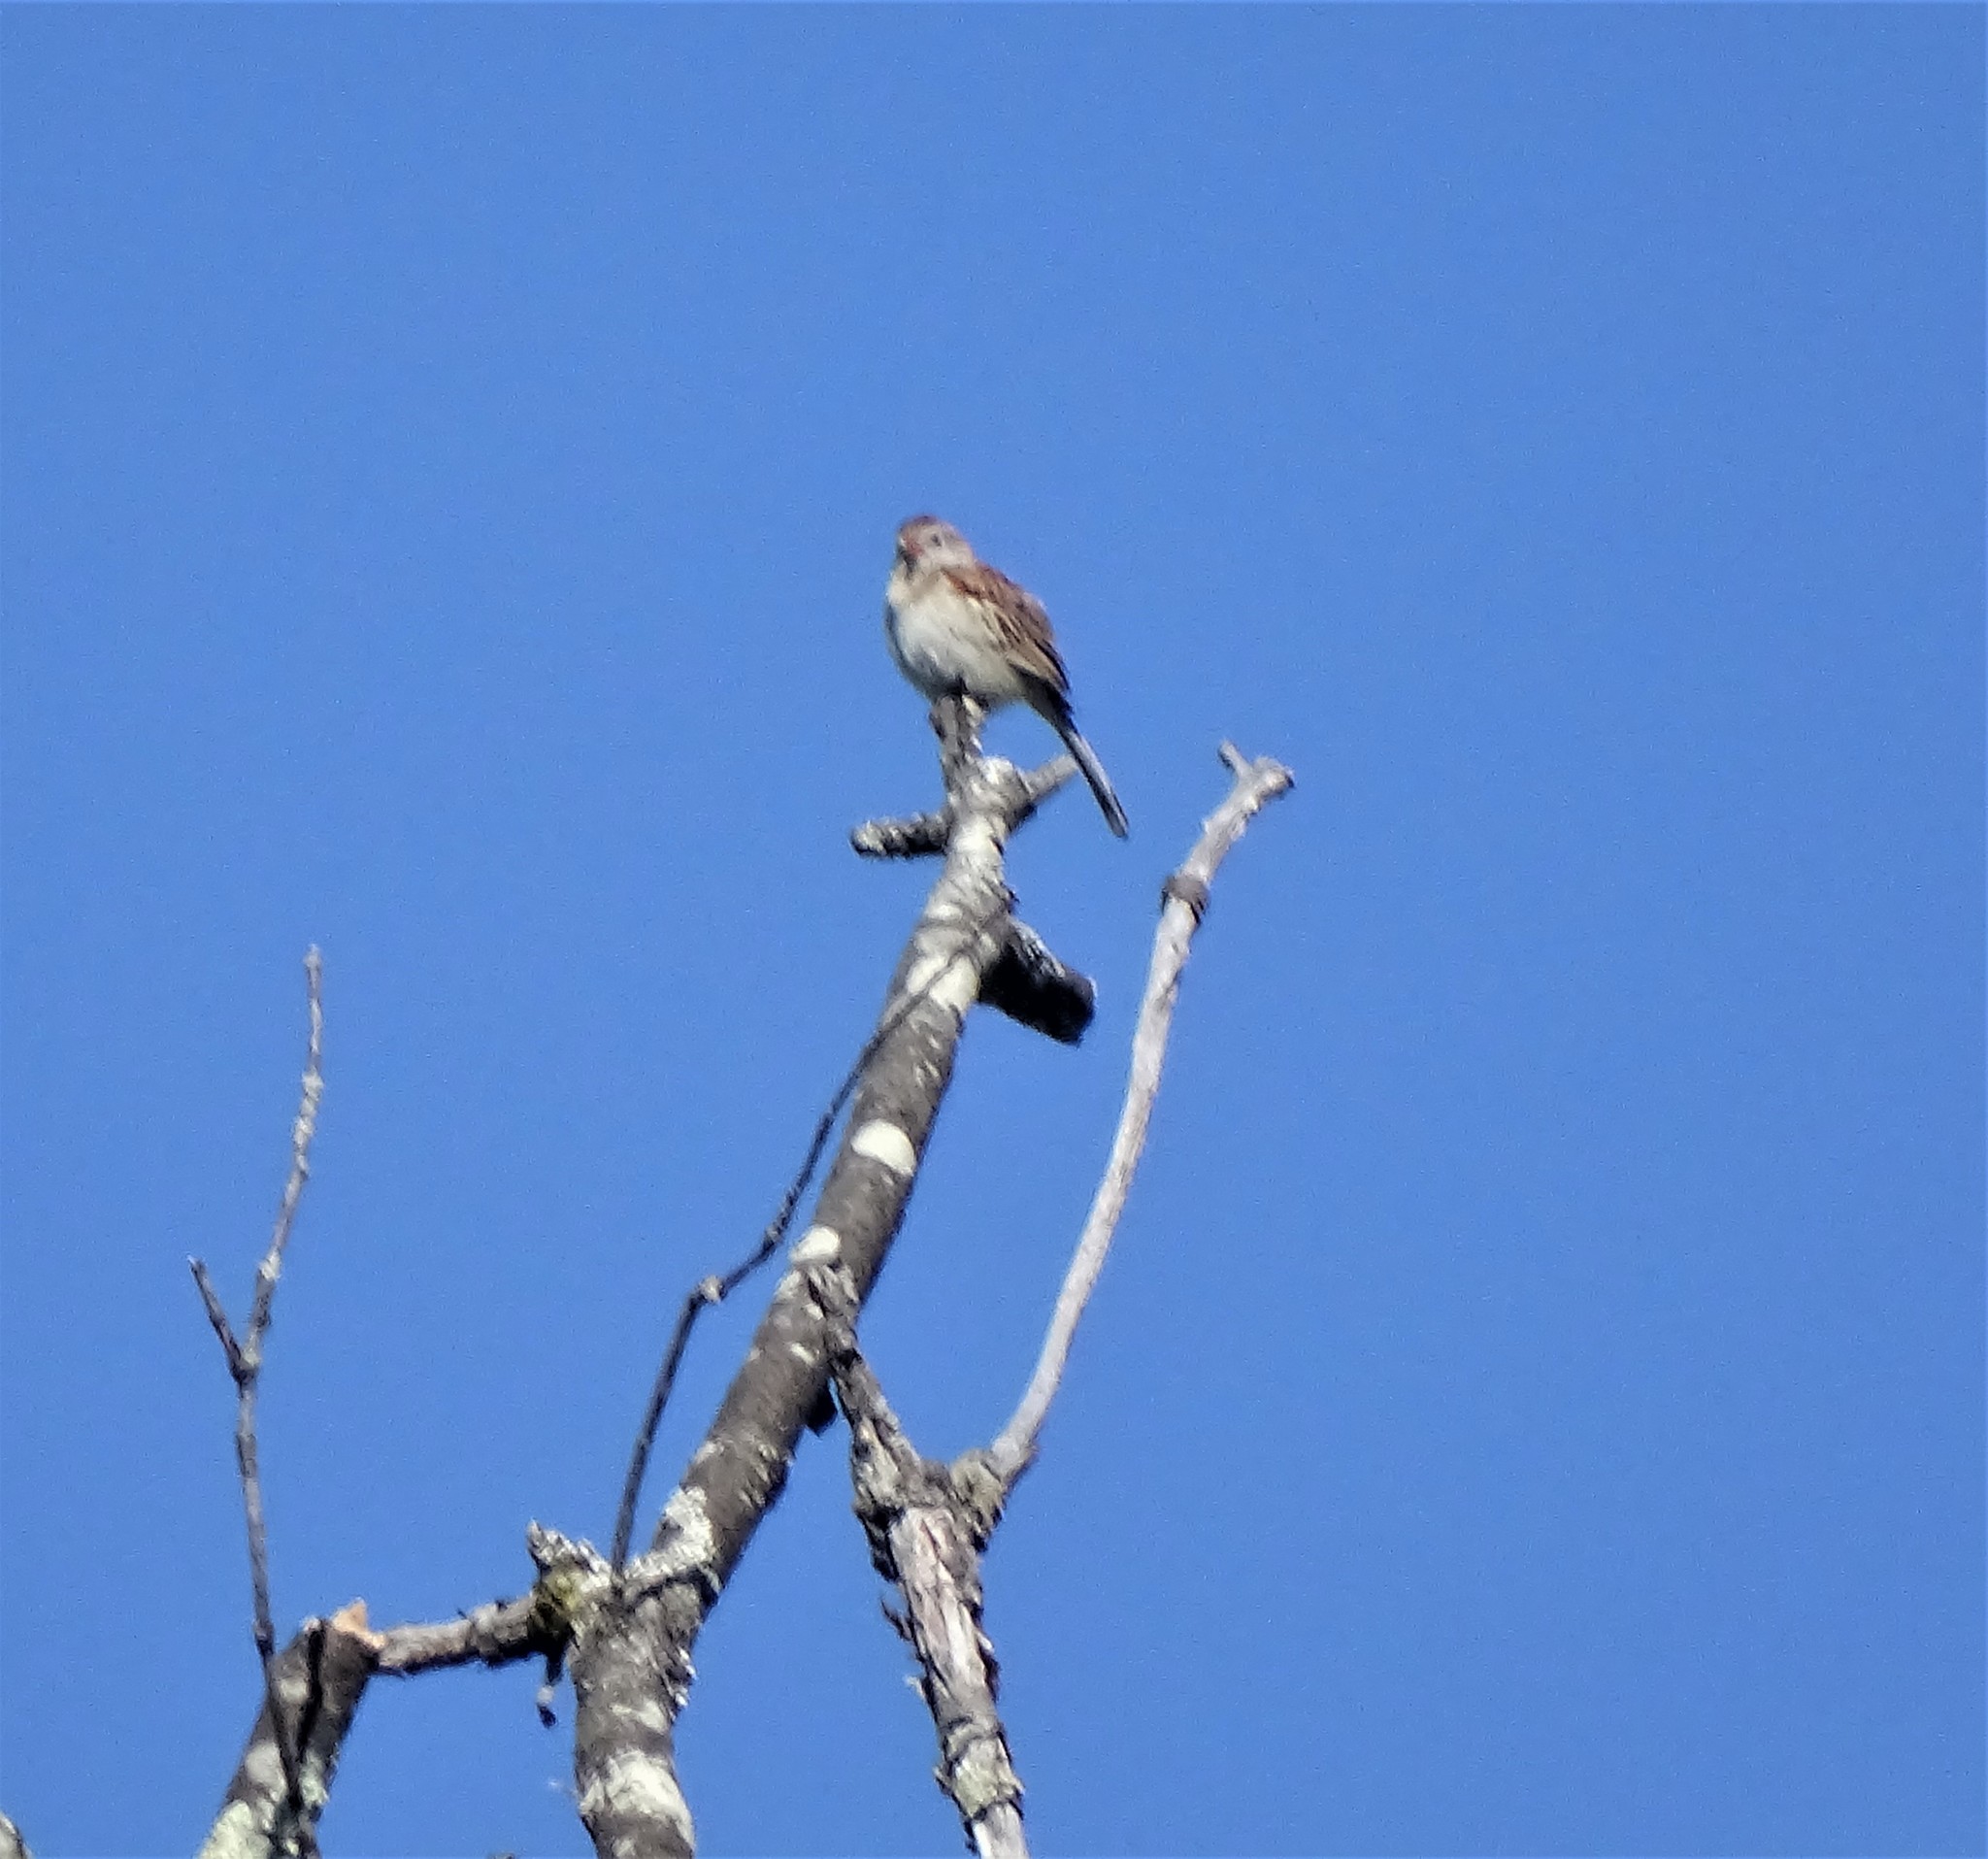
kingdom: Animalia
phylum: Chordata
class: Aves
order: Passeriformes
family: Passerellidae
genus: Spizella
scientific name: Spizella pusilla
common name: Field sparrow
